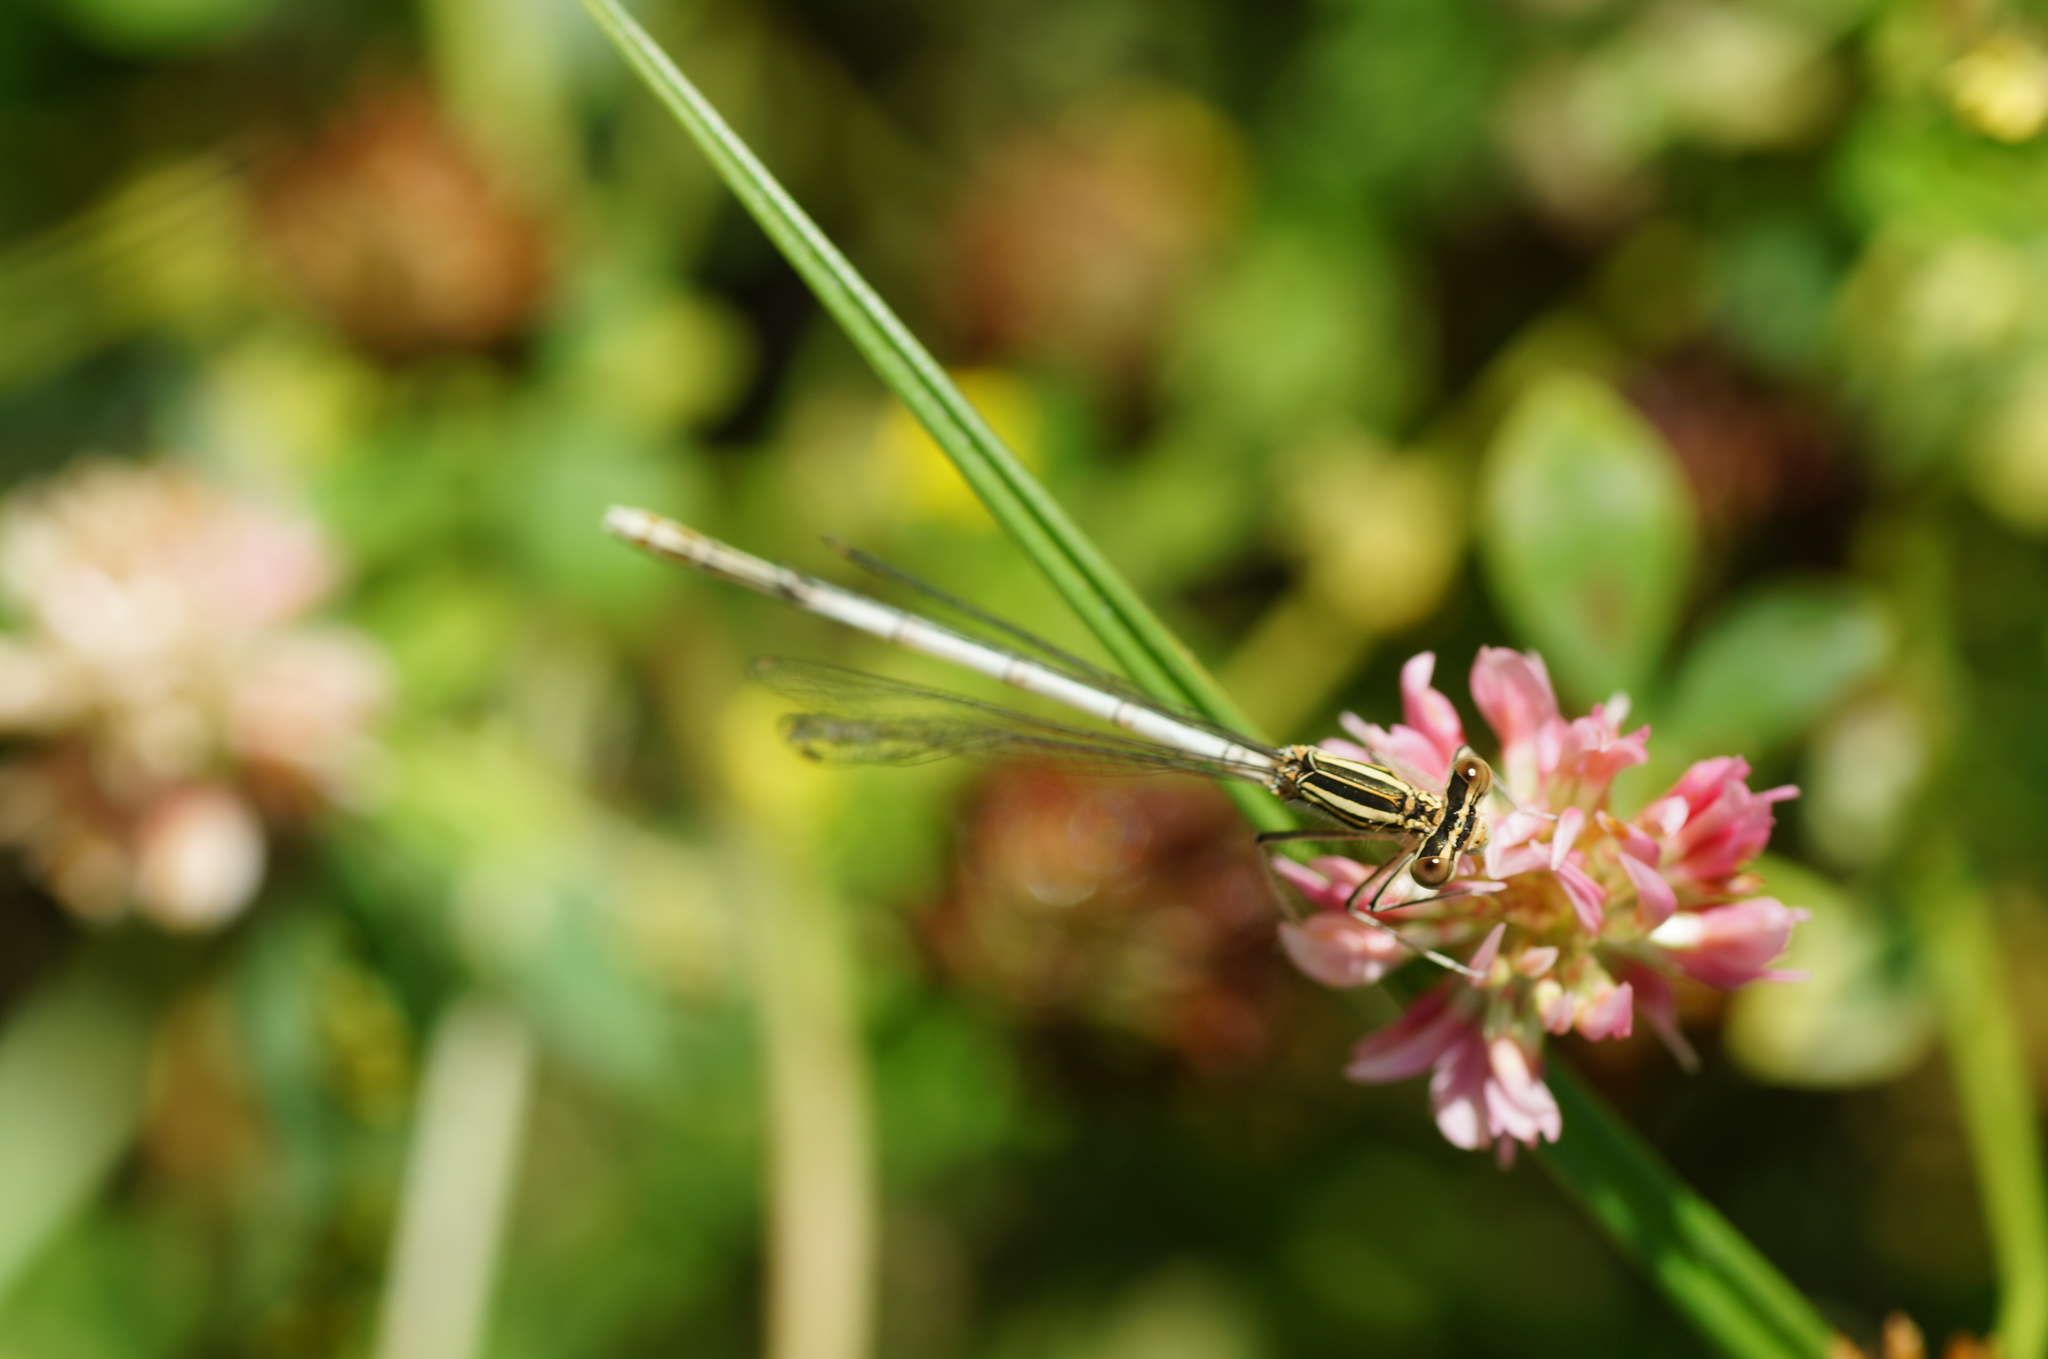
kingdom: Animalia
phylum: Arthropoda
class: Insecta
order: Odonata
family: Platycnemididae
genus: Platycnemis
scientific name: Platycnemis pennipes
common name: White-legged damselfly
